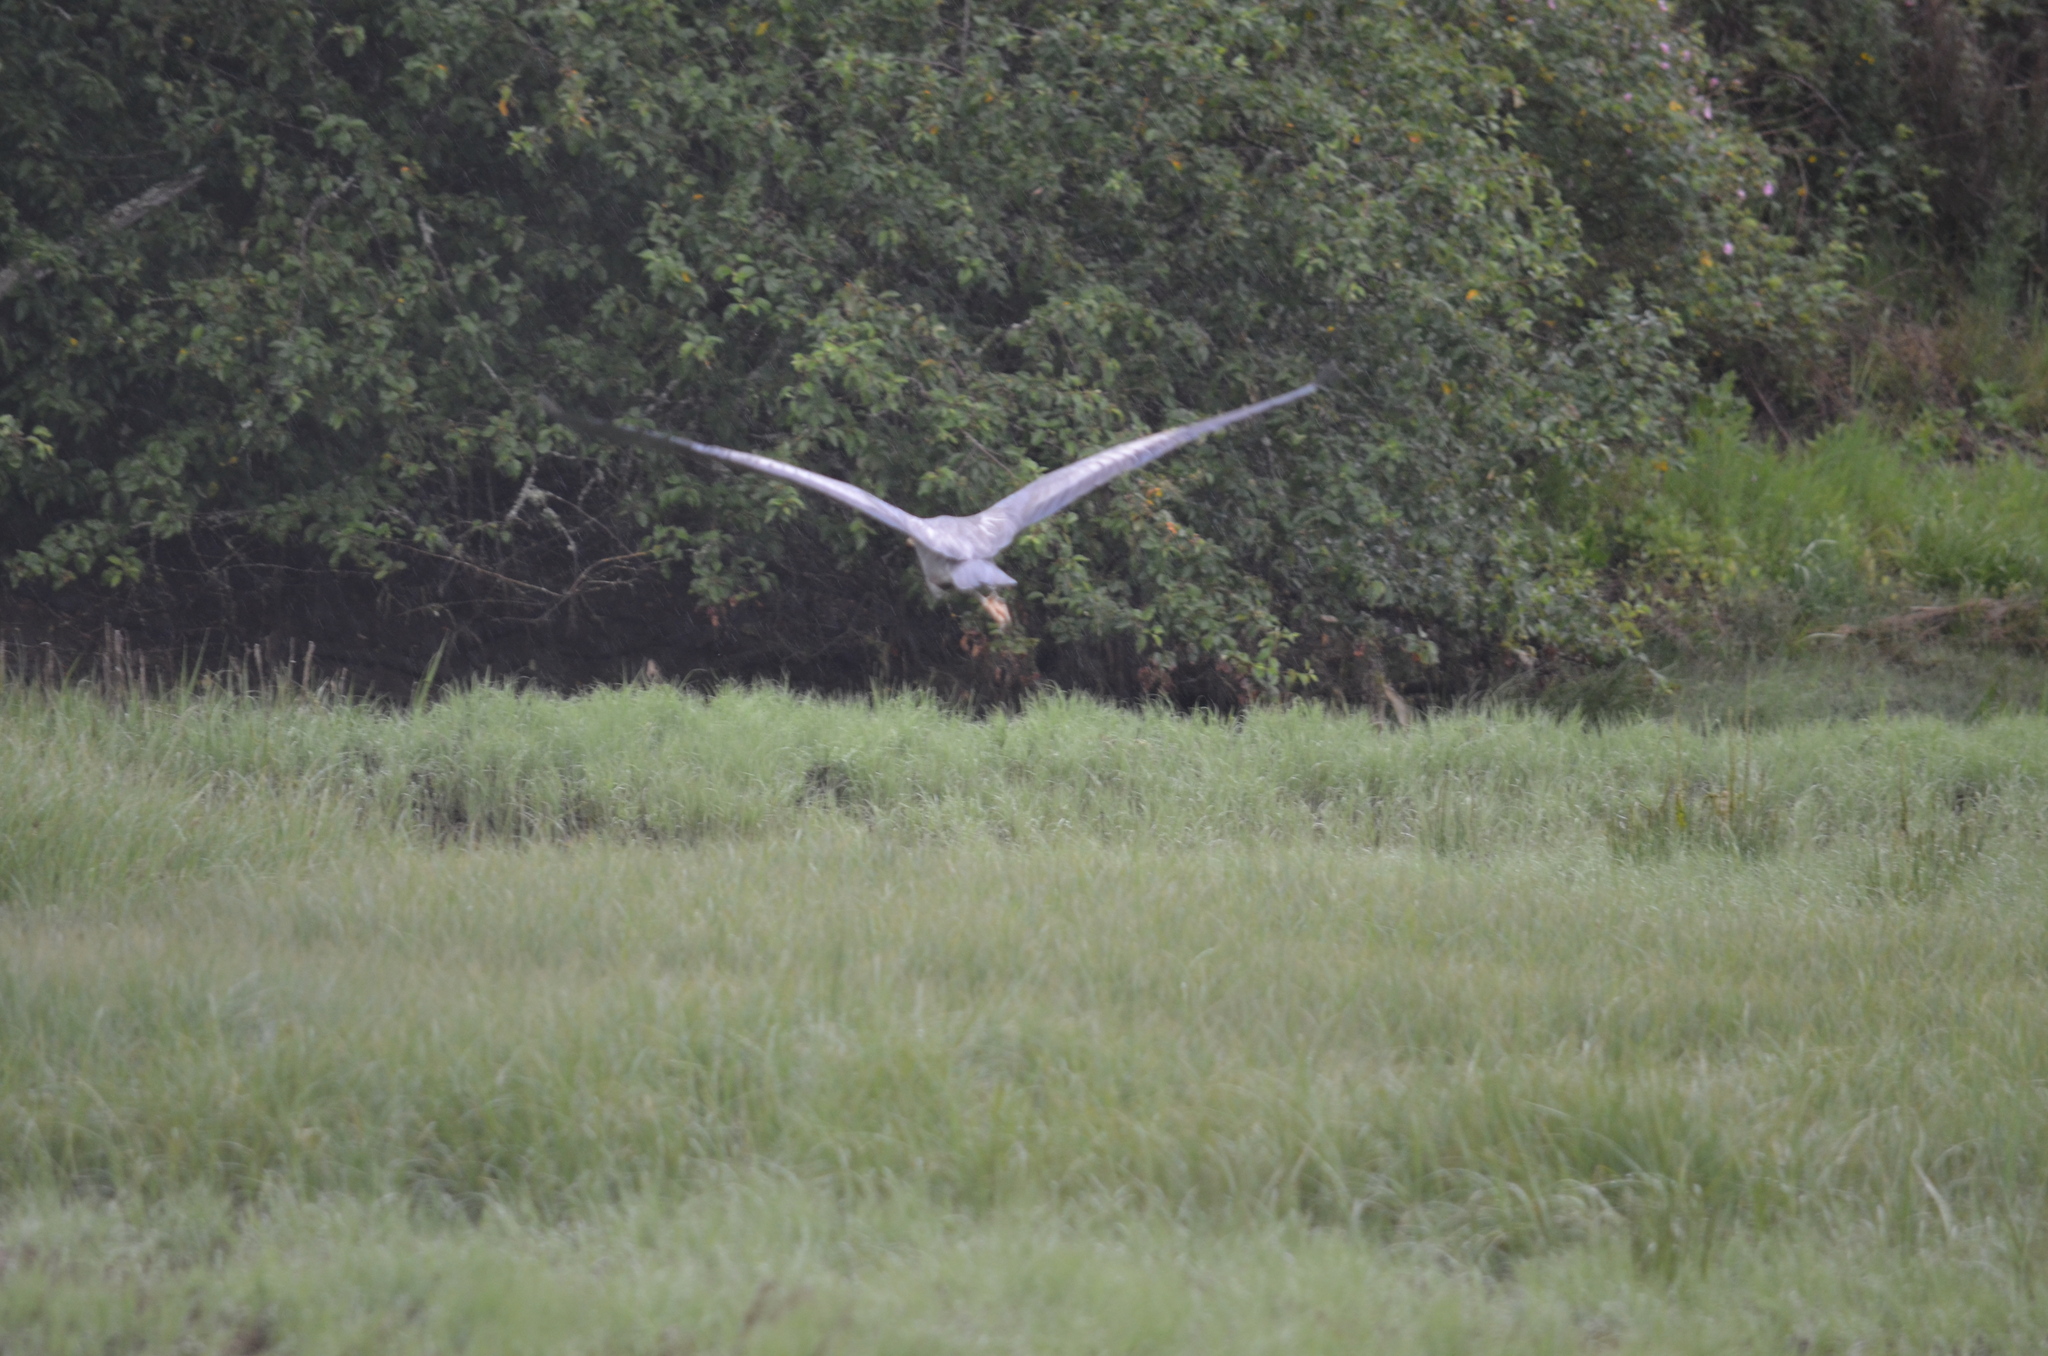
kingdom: Animalia
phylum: Chordata
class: Aves
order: Pelecaniformes
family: Ardeidae
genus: Ardea
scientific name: Ardea herodias
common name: Great blue heron
